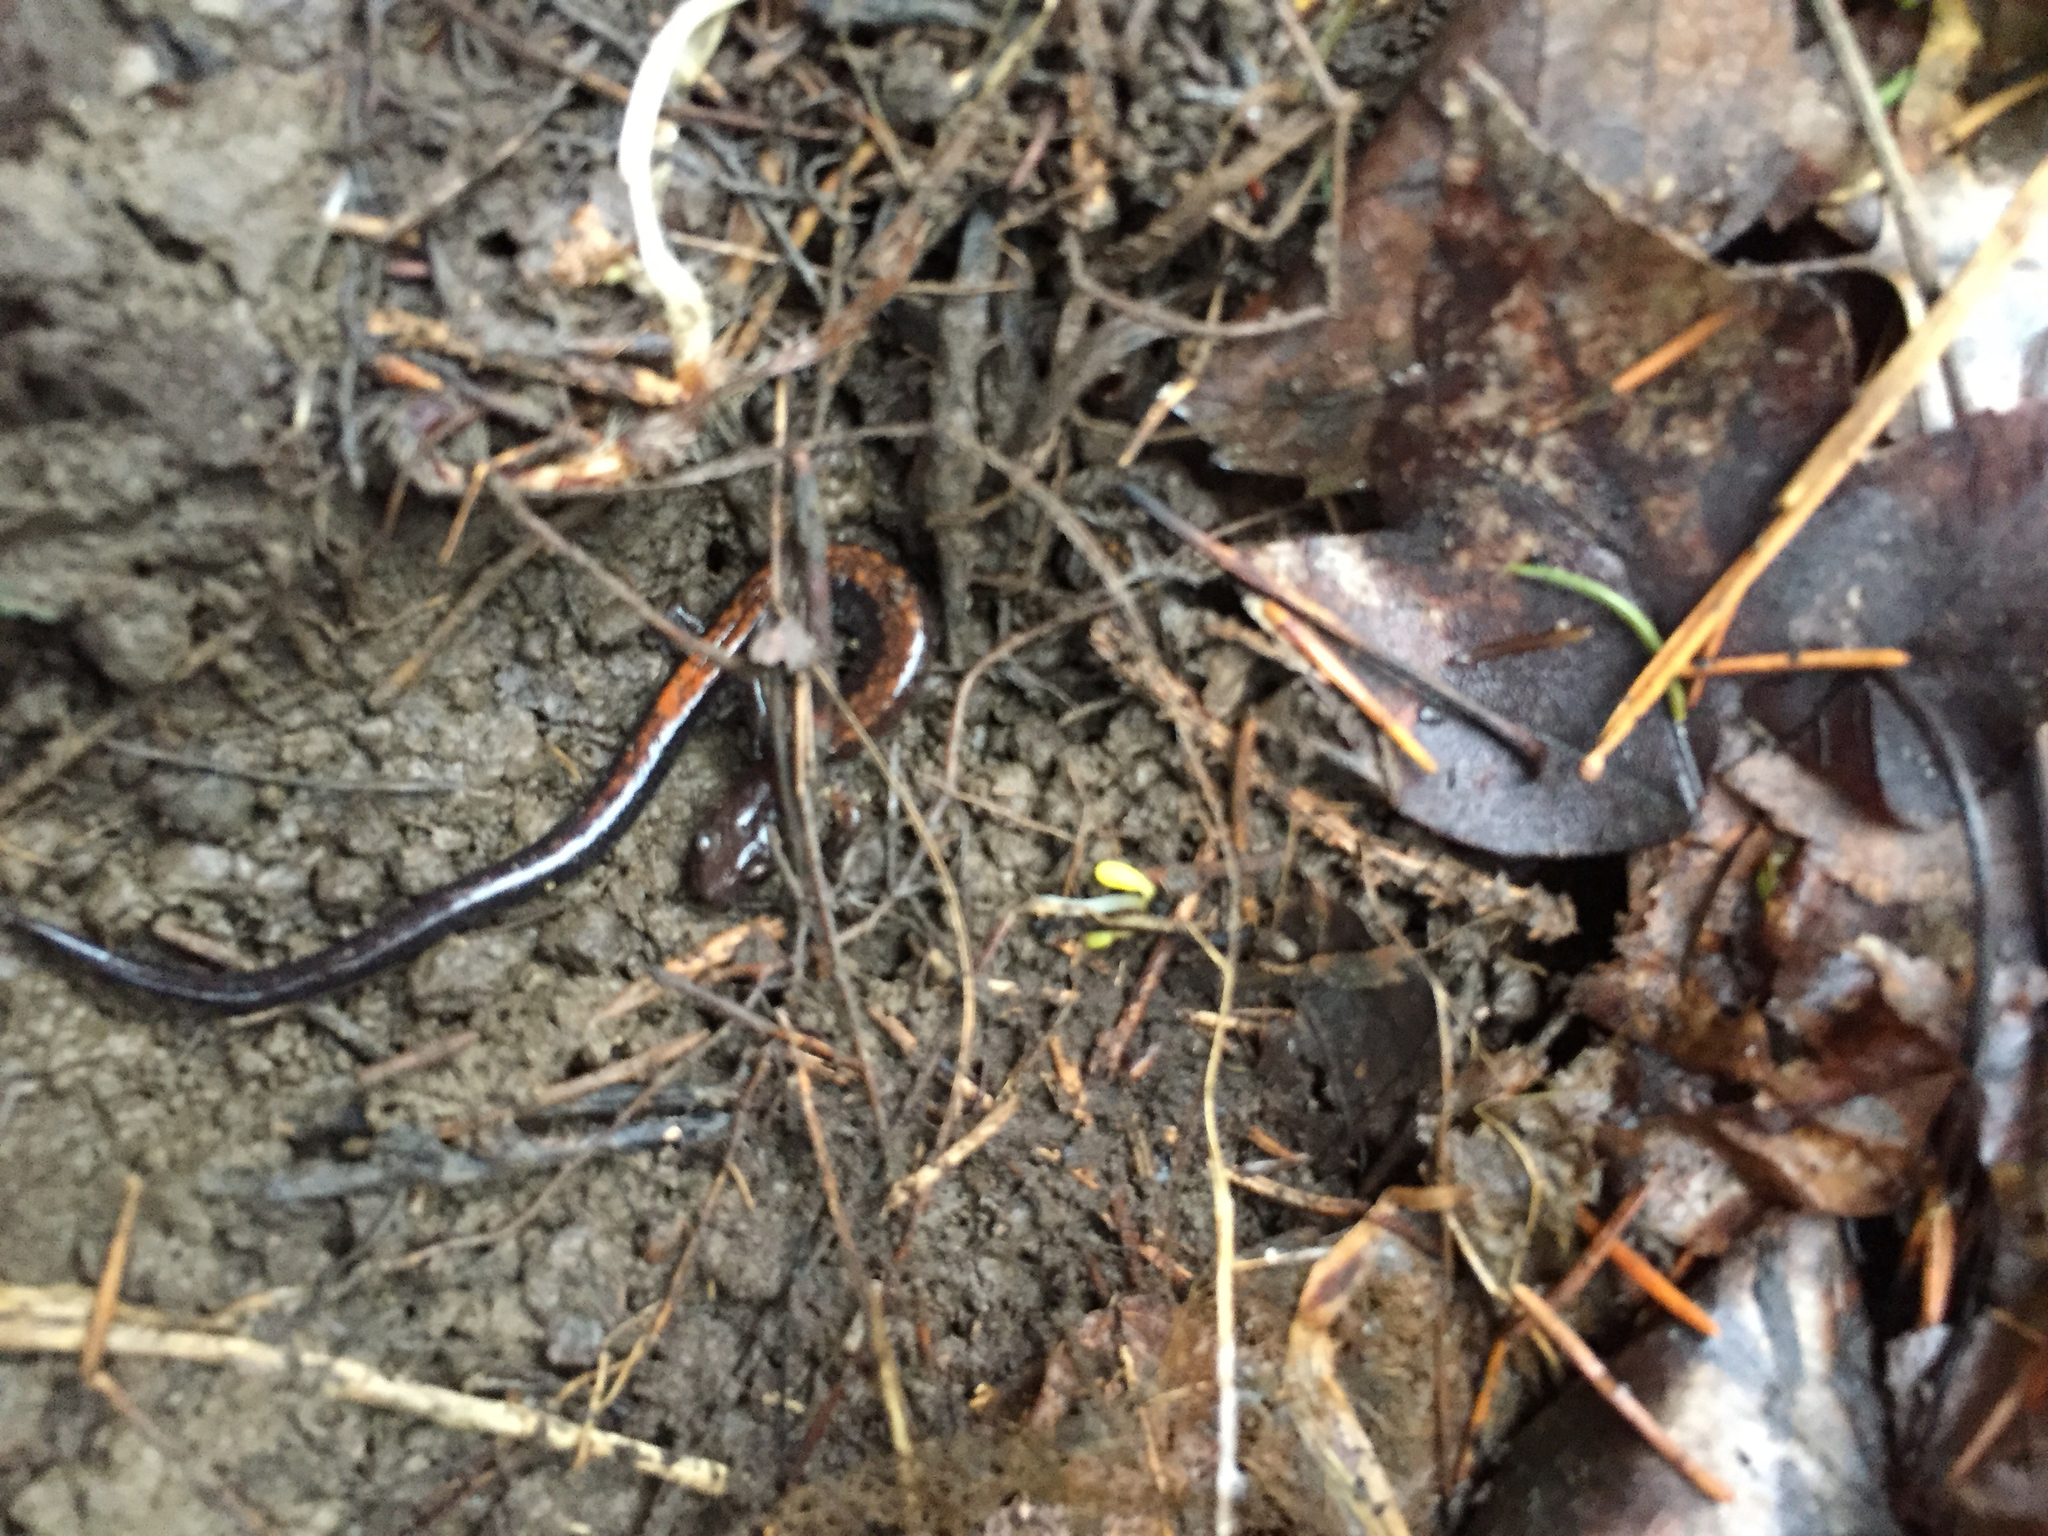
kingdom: Animalia
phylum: Chordata
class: Amphibia
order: Caudata
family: Plethodontidae
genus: Plethodon
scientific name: Plethodon cinereus
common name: Redback salamander
